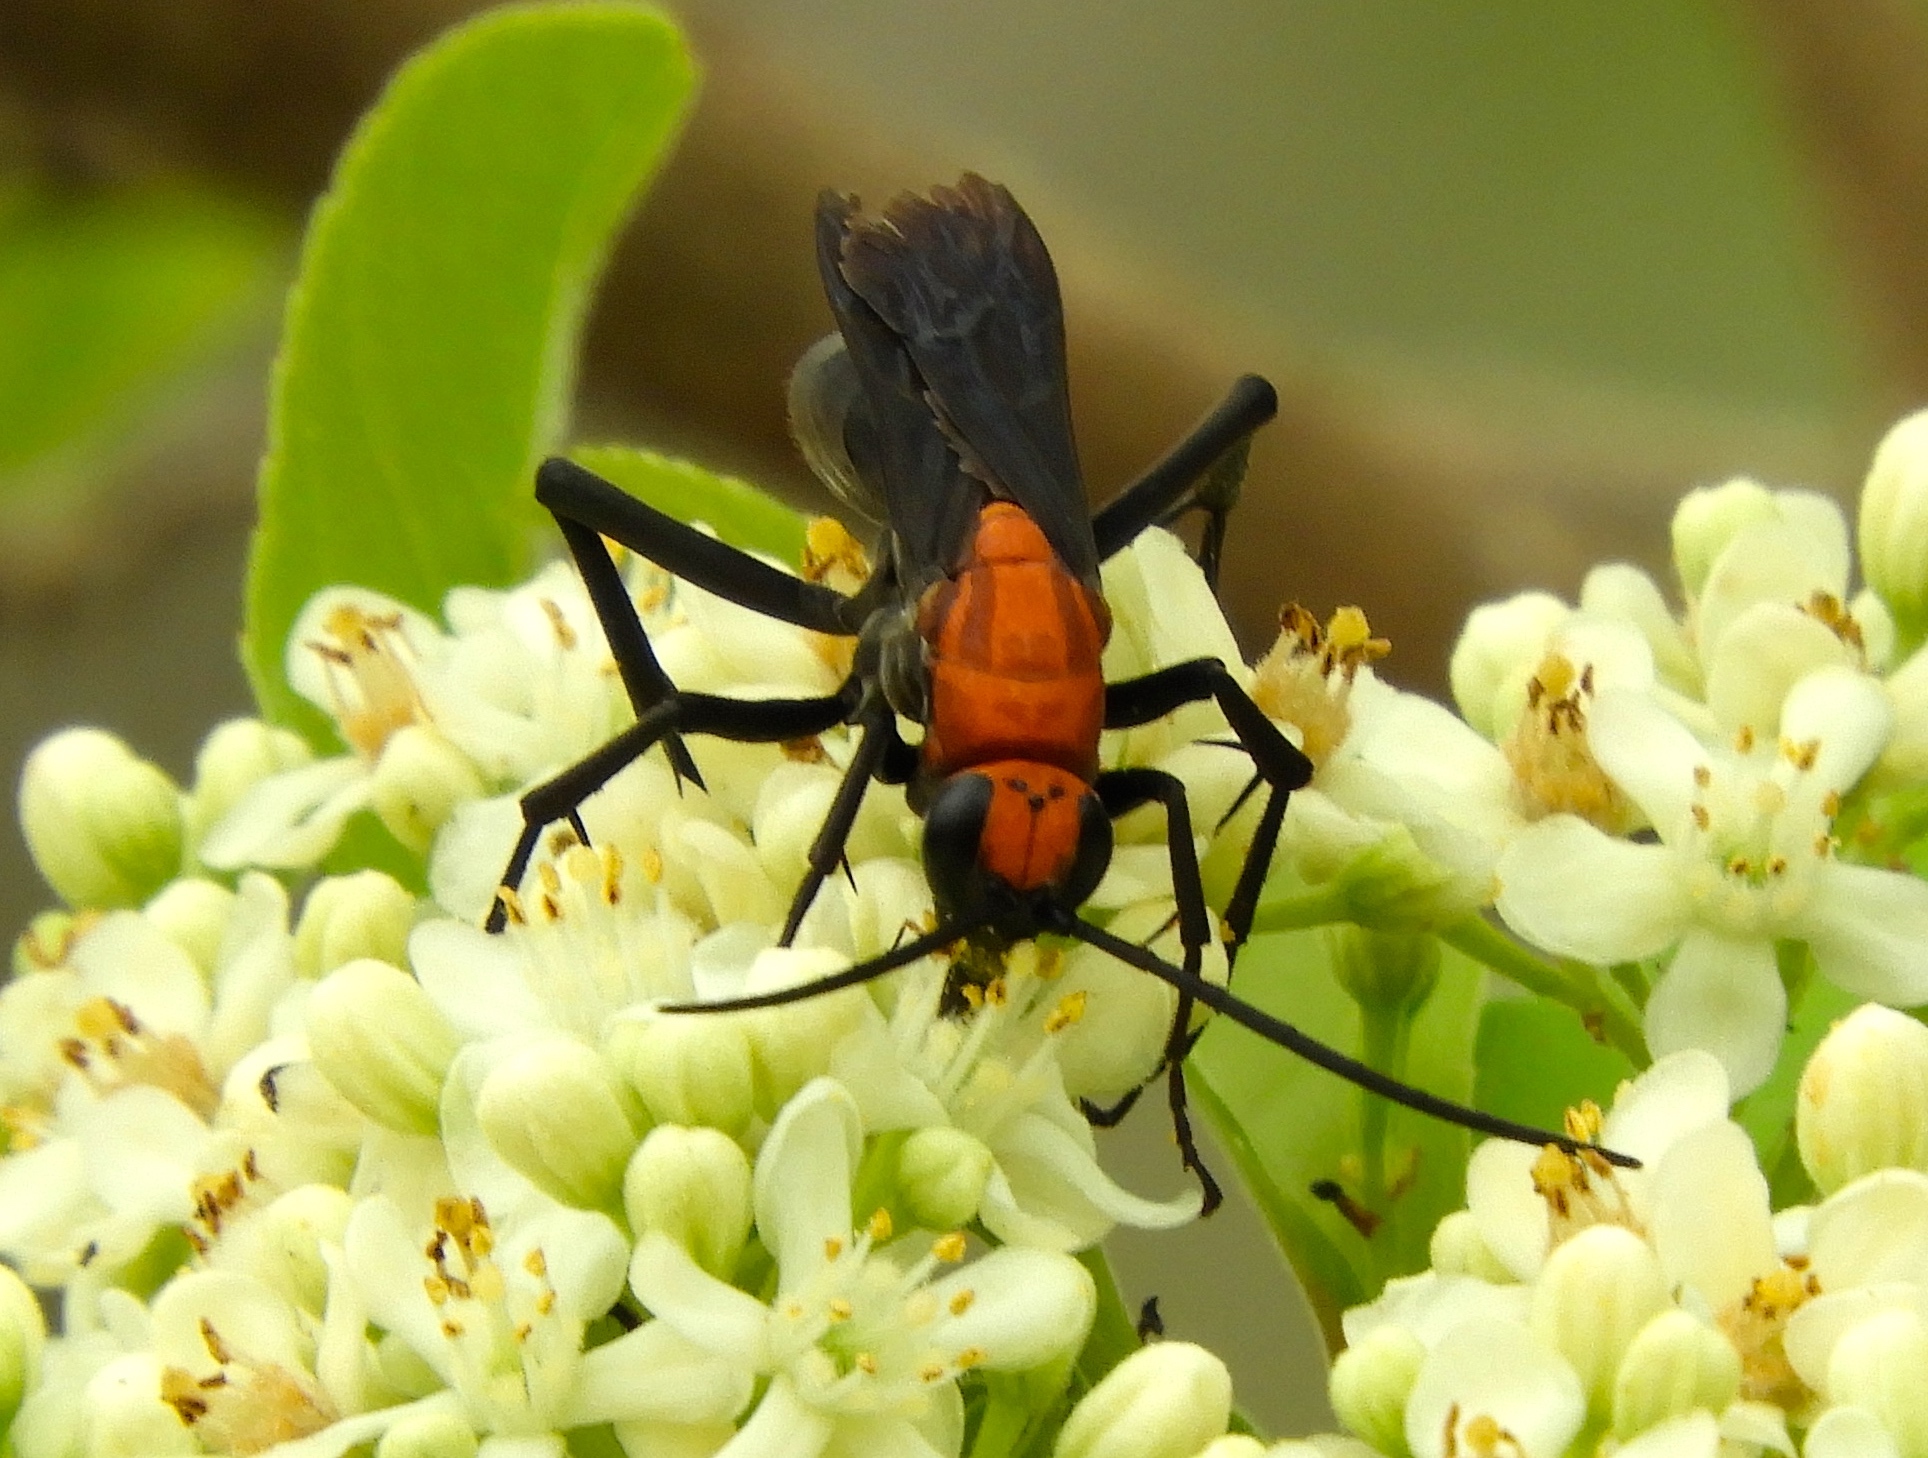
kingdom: Animalia
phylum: Arthropoda
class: Insecta
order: Hymenoptera
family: Pompilidae
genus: Notocyphus
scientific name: Notocyphus dorsalis
